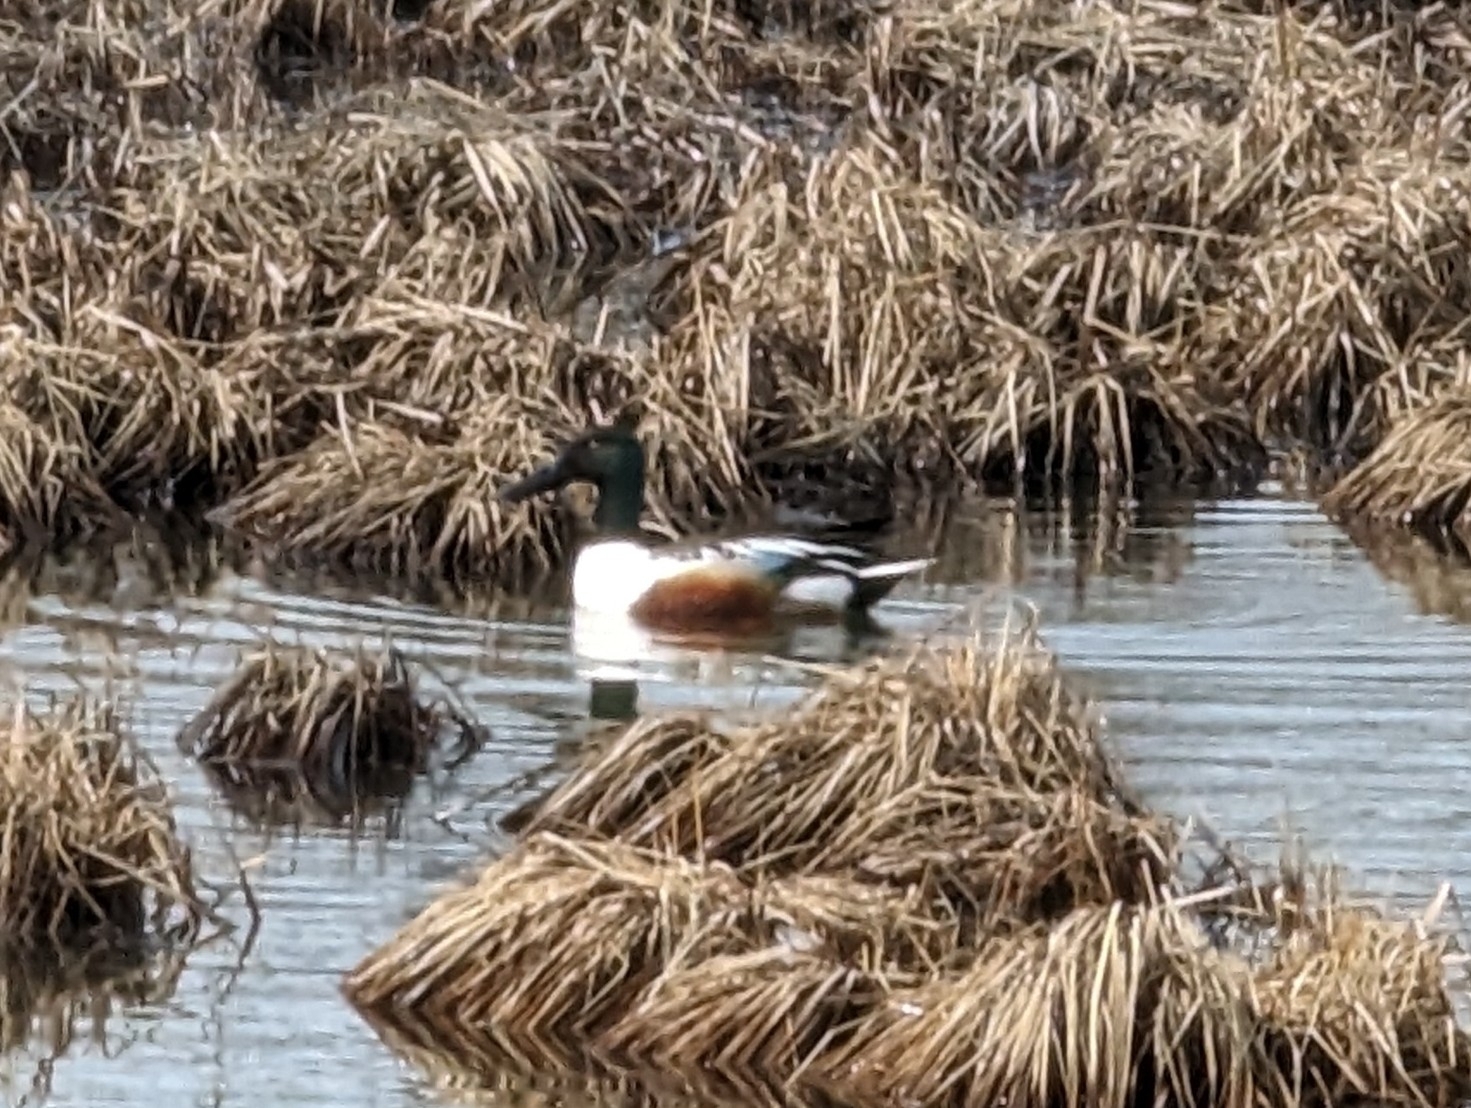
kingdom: Animalia
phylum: Chordata
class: Aves
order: Anseriformes
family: Anatidae
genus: Spatula
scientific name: Spatula clypeata
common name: Northern shoveler
